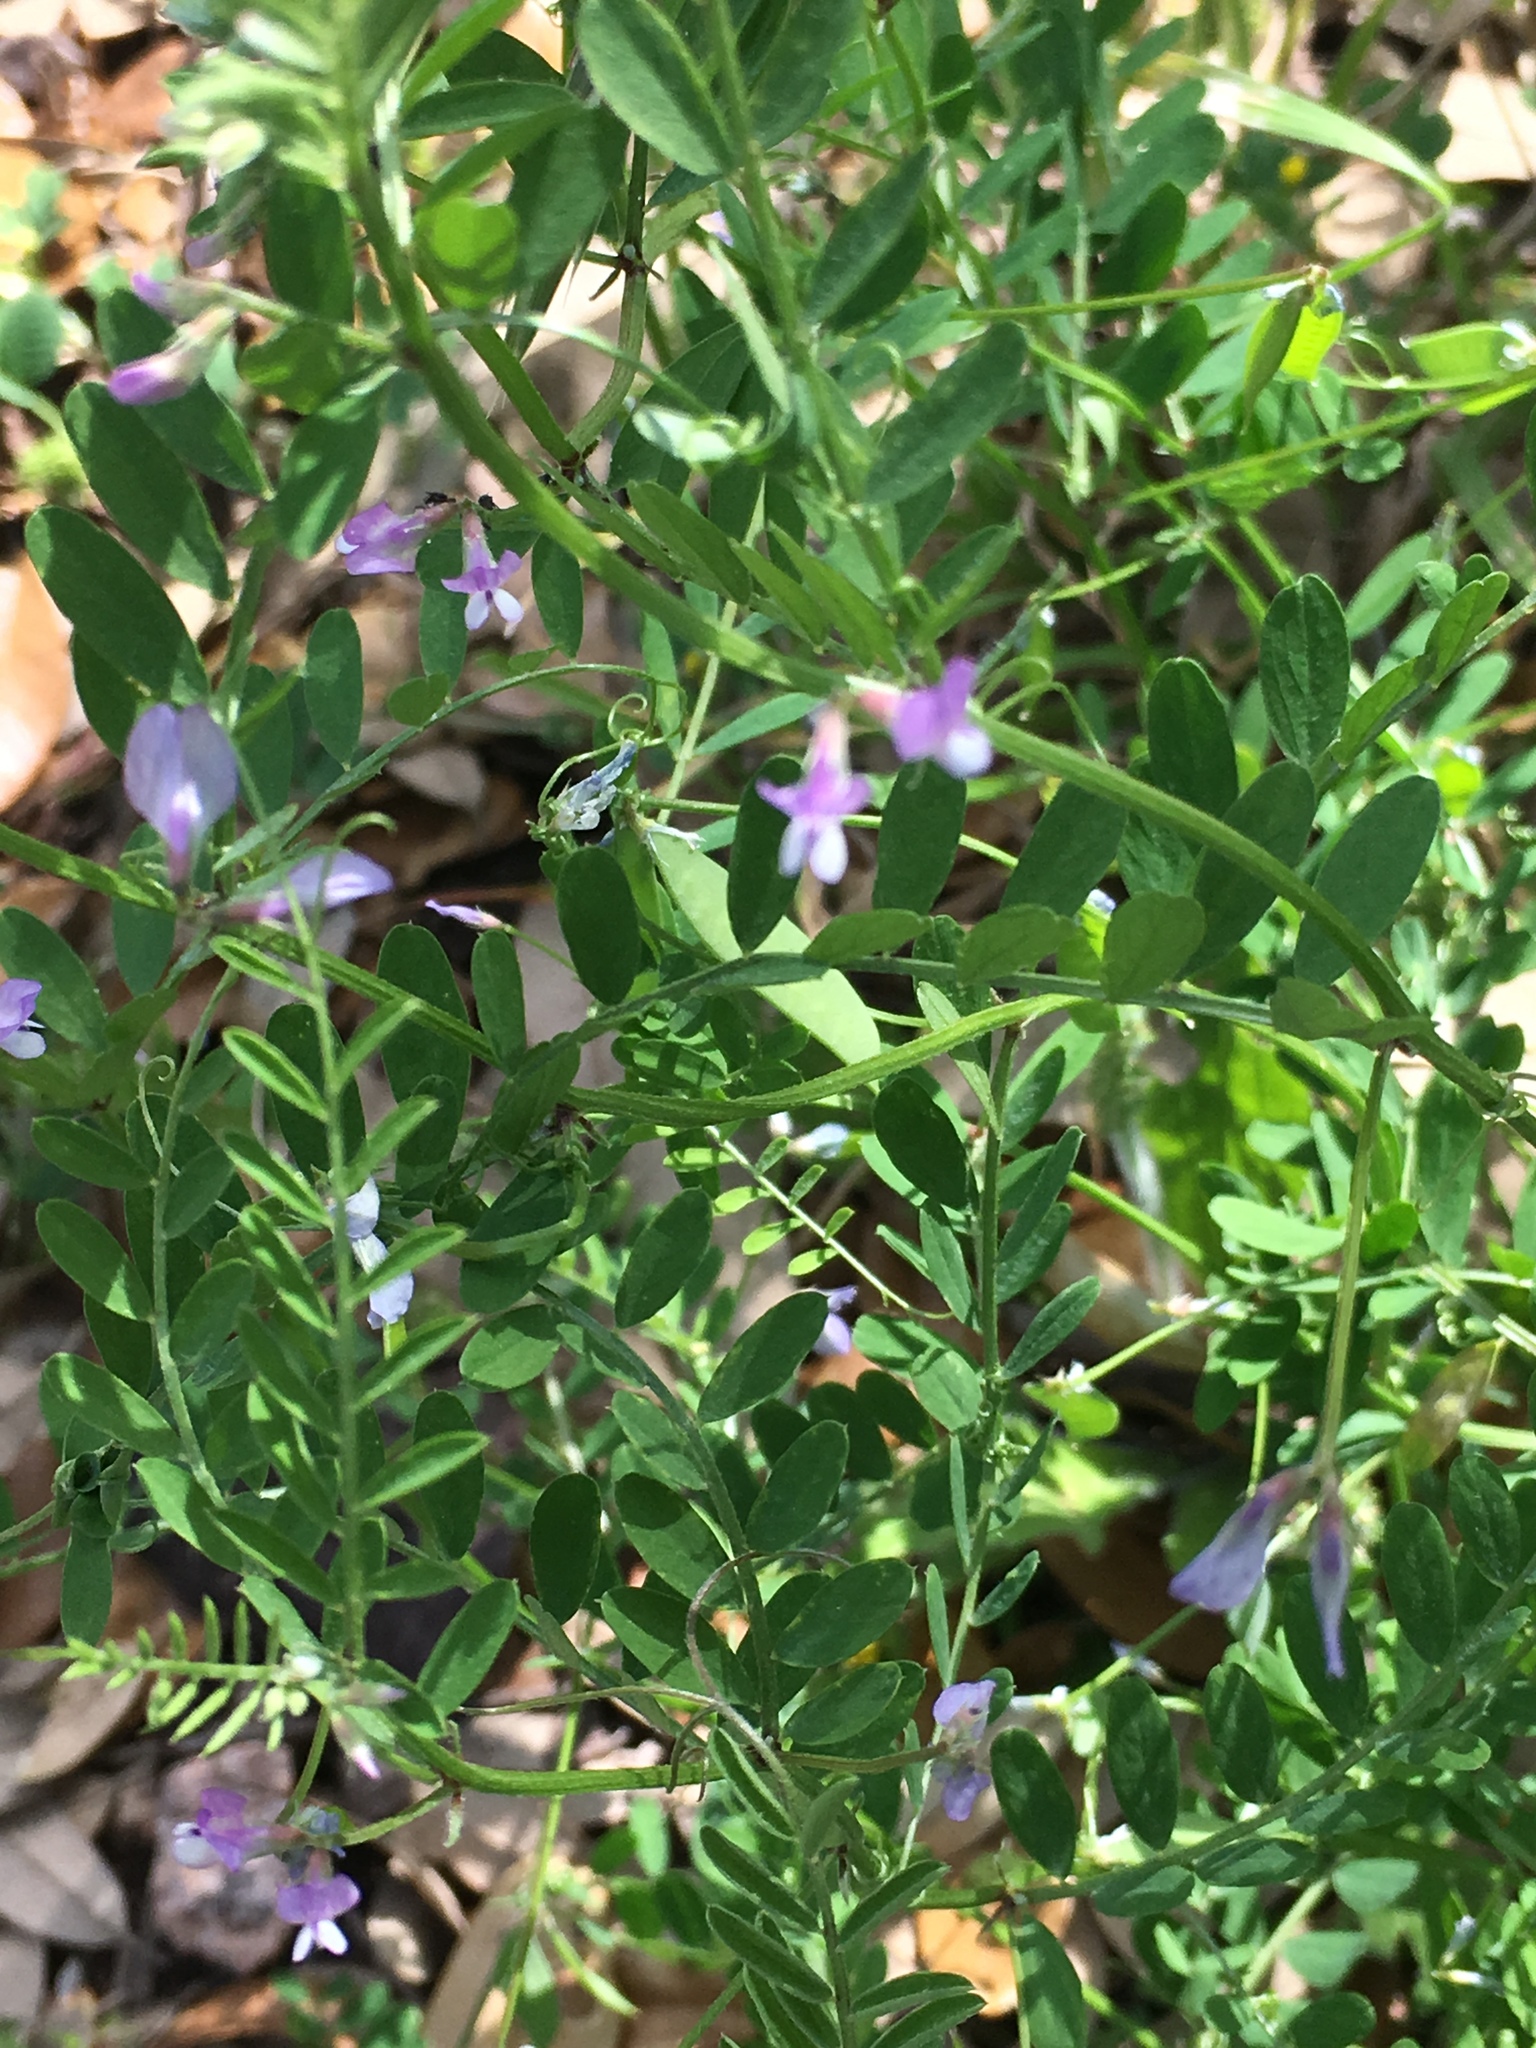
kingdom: Plantae
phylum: Tracheophyta
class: Magnoliopsida
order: Fabales
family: Fabaceae
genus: Vicia
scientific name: Vicia ludoviciana
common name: Louisiana vetch
